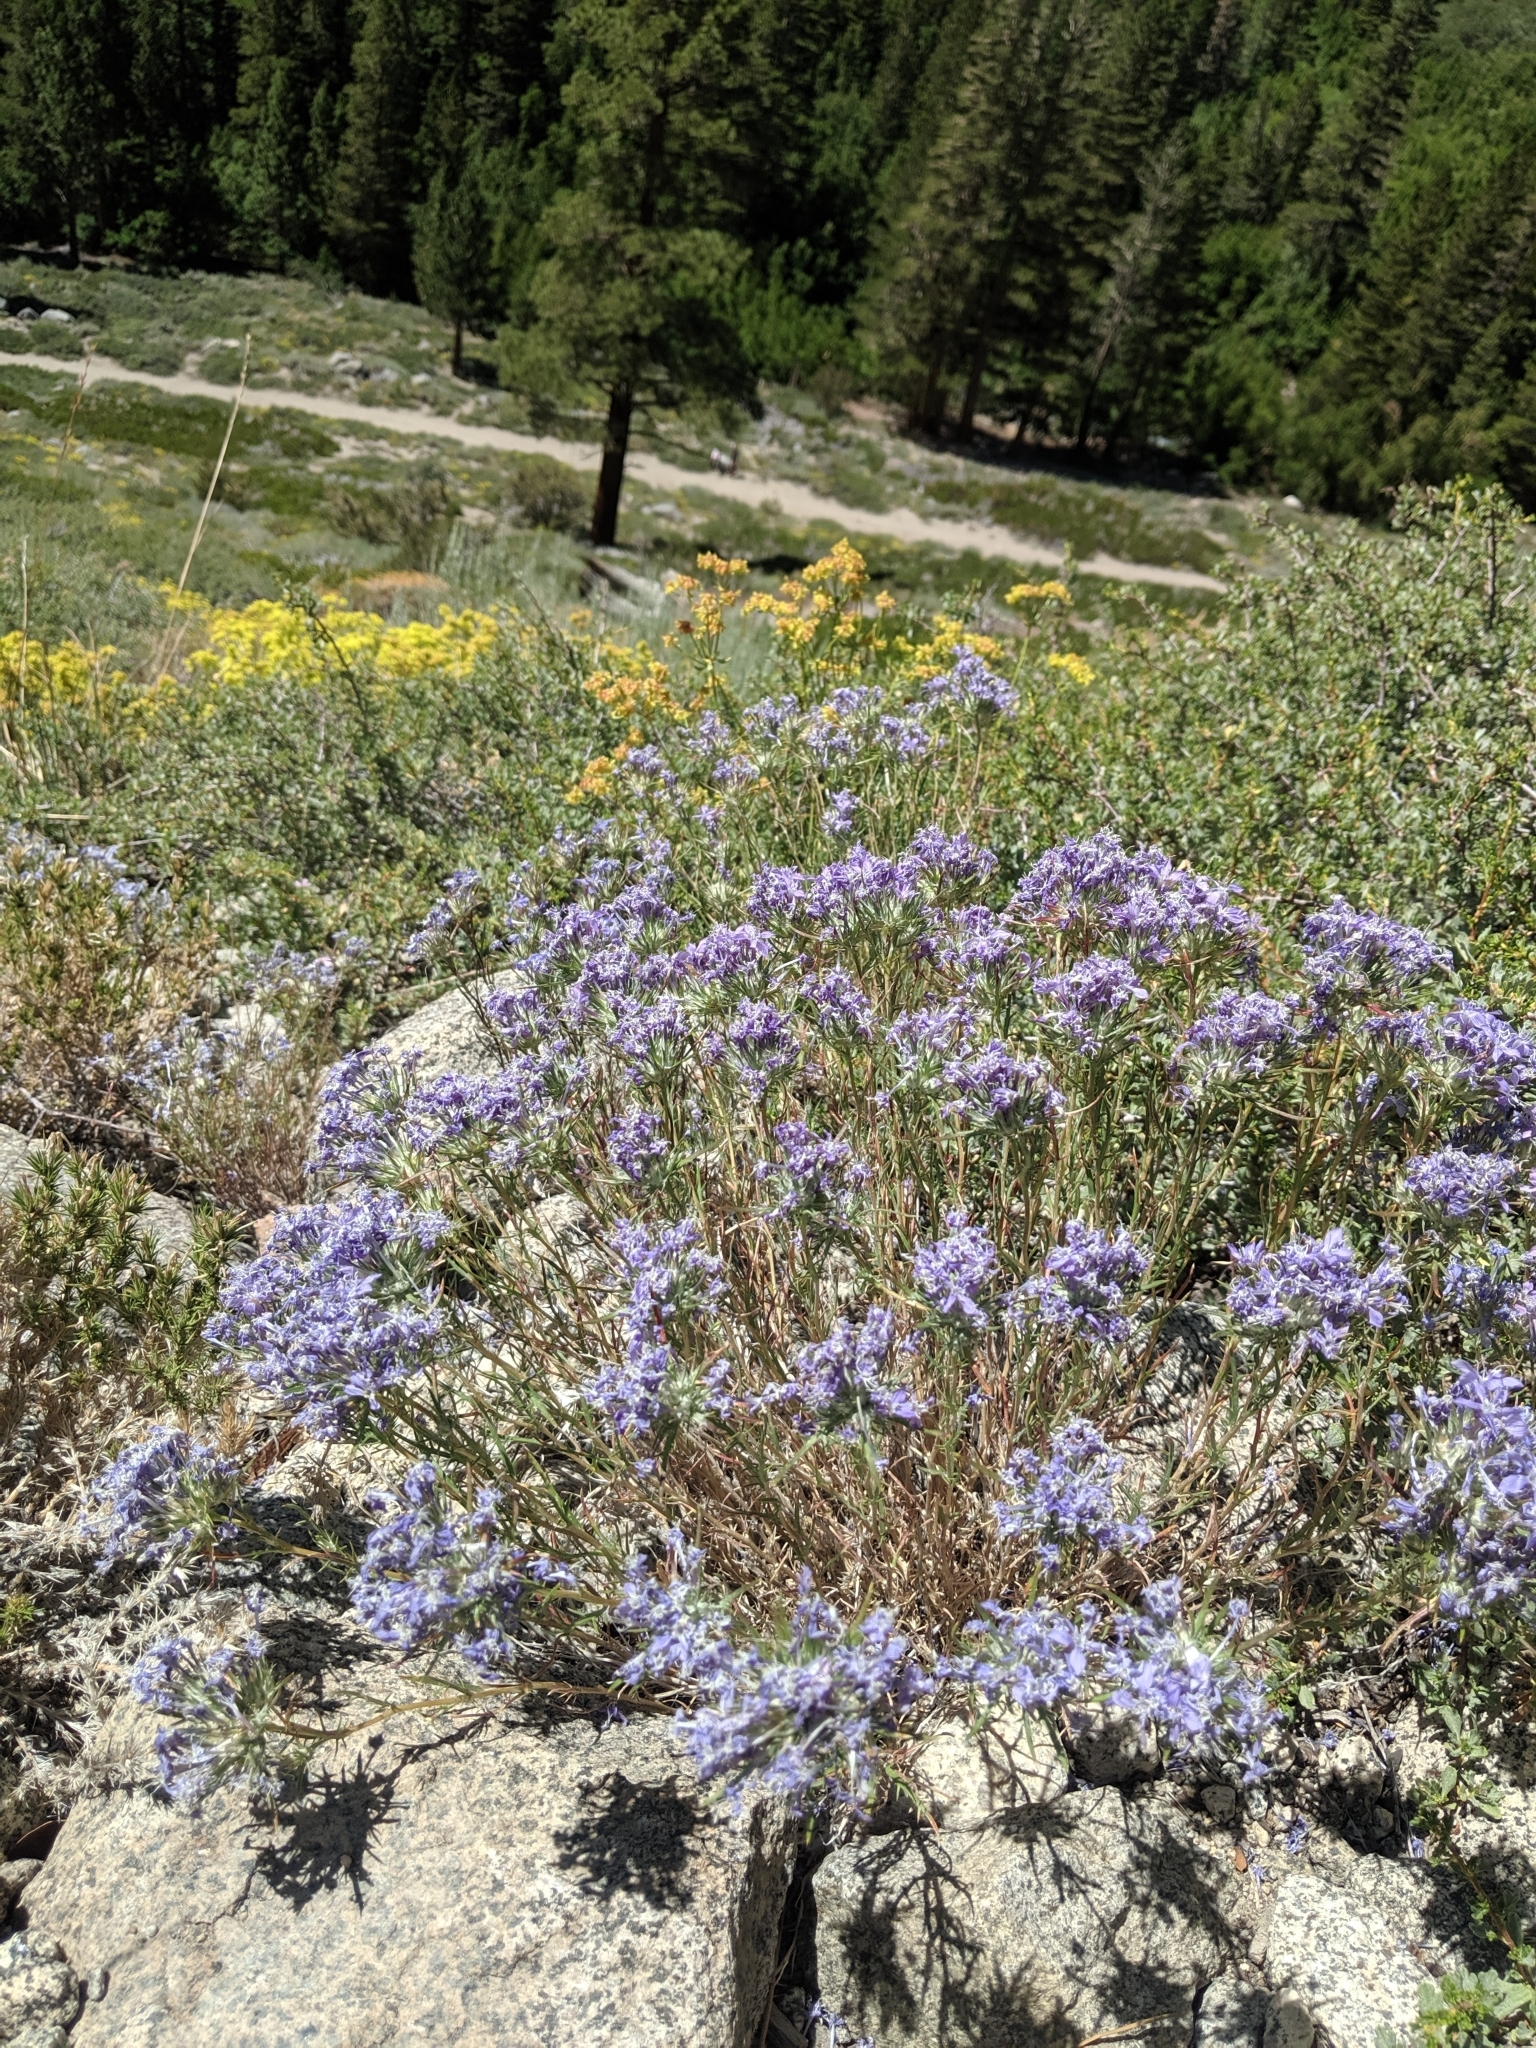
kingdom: Plantae
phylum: Tracheophyta
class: Magnoliopsida
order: Ericales
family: Polemoniaceae
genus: Eriastrum
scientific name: Eriastrum densifolium
